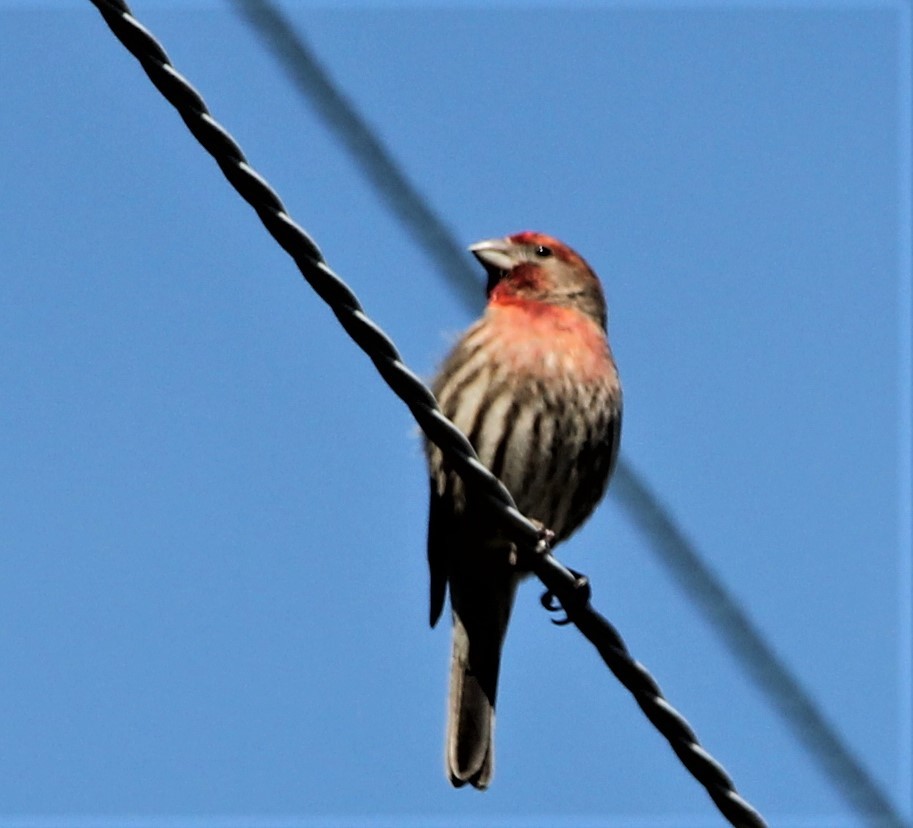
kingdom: Animalia
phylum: Chordata
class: Aves
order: Passeriformes
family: Fringillidae
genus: Haemorhous
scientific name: Haemorhous mexicanus
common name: House finch
